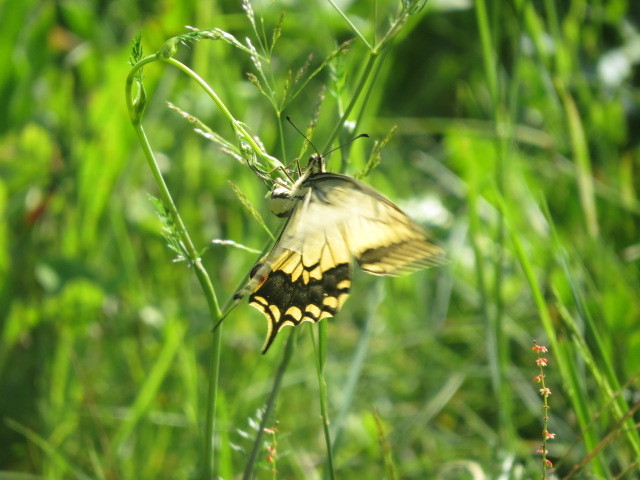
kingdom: Animalia
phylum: Arthropoda
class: Insecta
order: Lepidoptera
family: Papilionidae
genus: Papilio
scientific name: Papilio machaon
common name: Swallowtail
